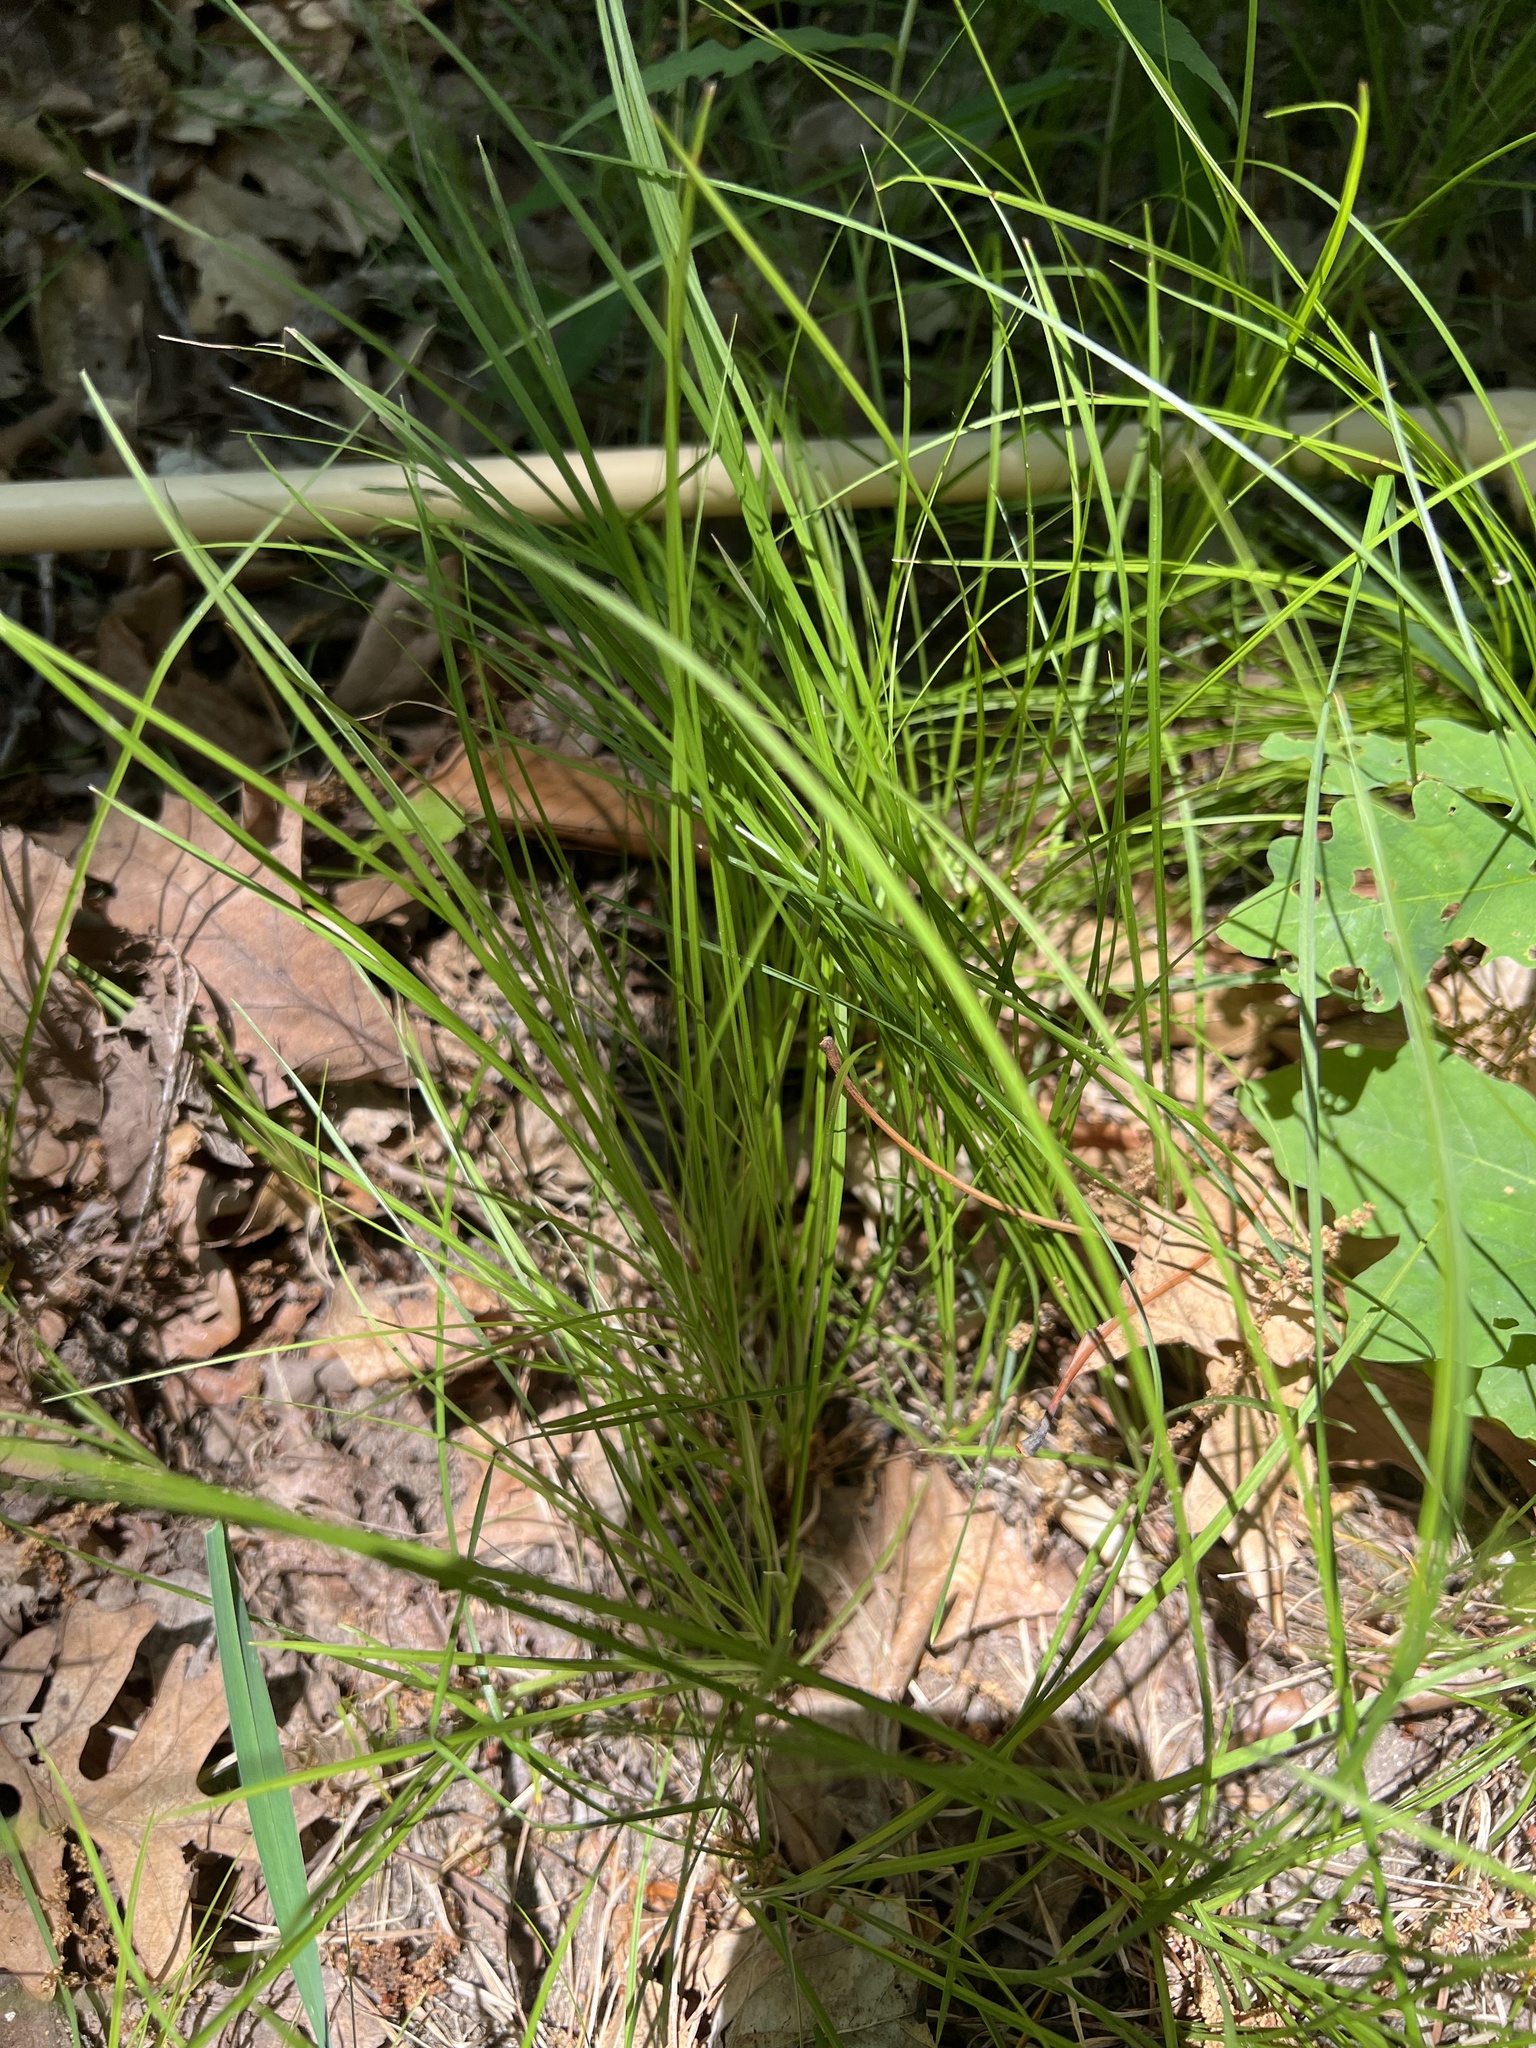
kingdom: Plantae
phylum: Tracheophyta
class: Liliopsida
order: Poales
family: Cyperaceae
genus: Carex
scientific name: Carex
